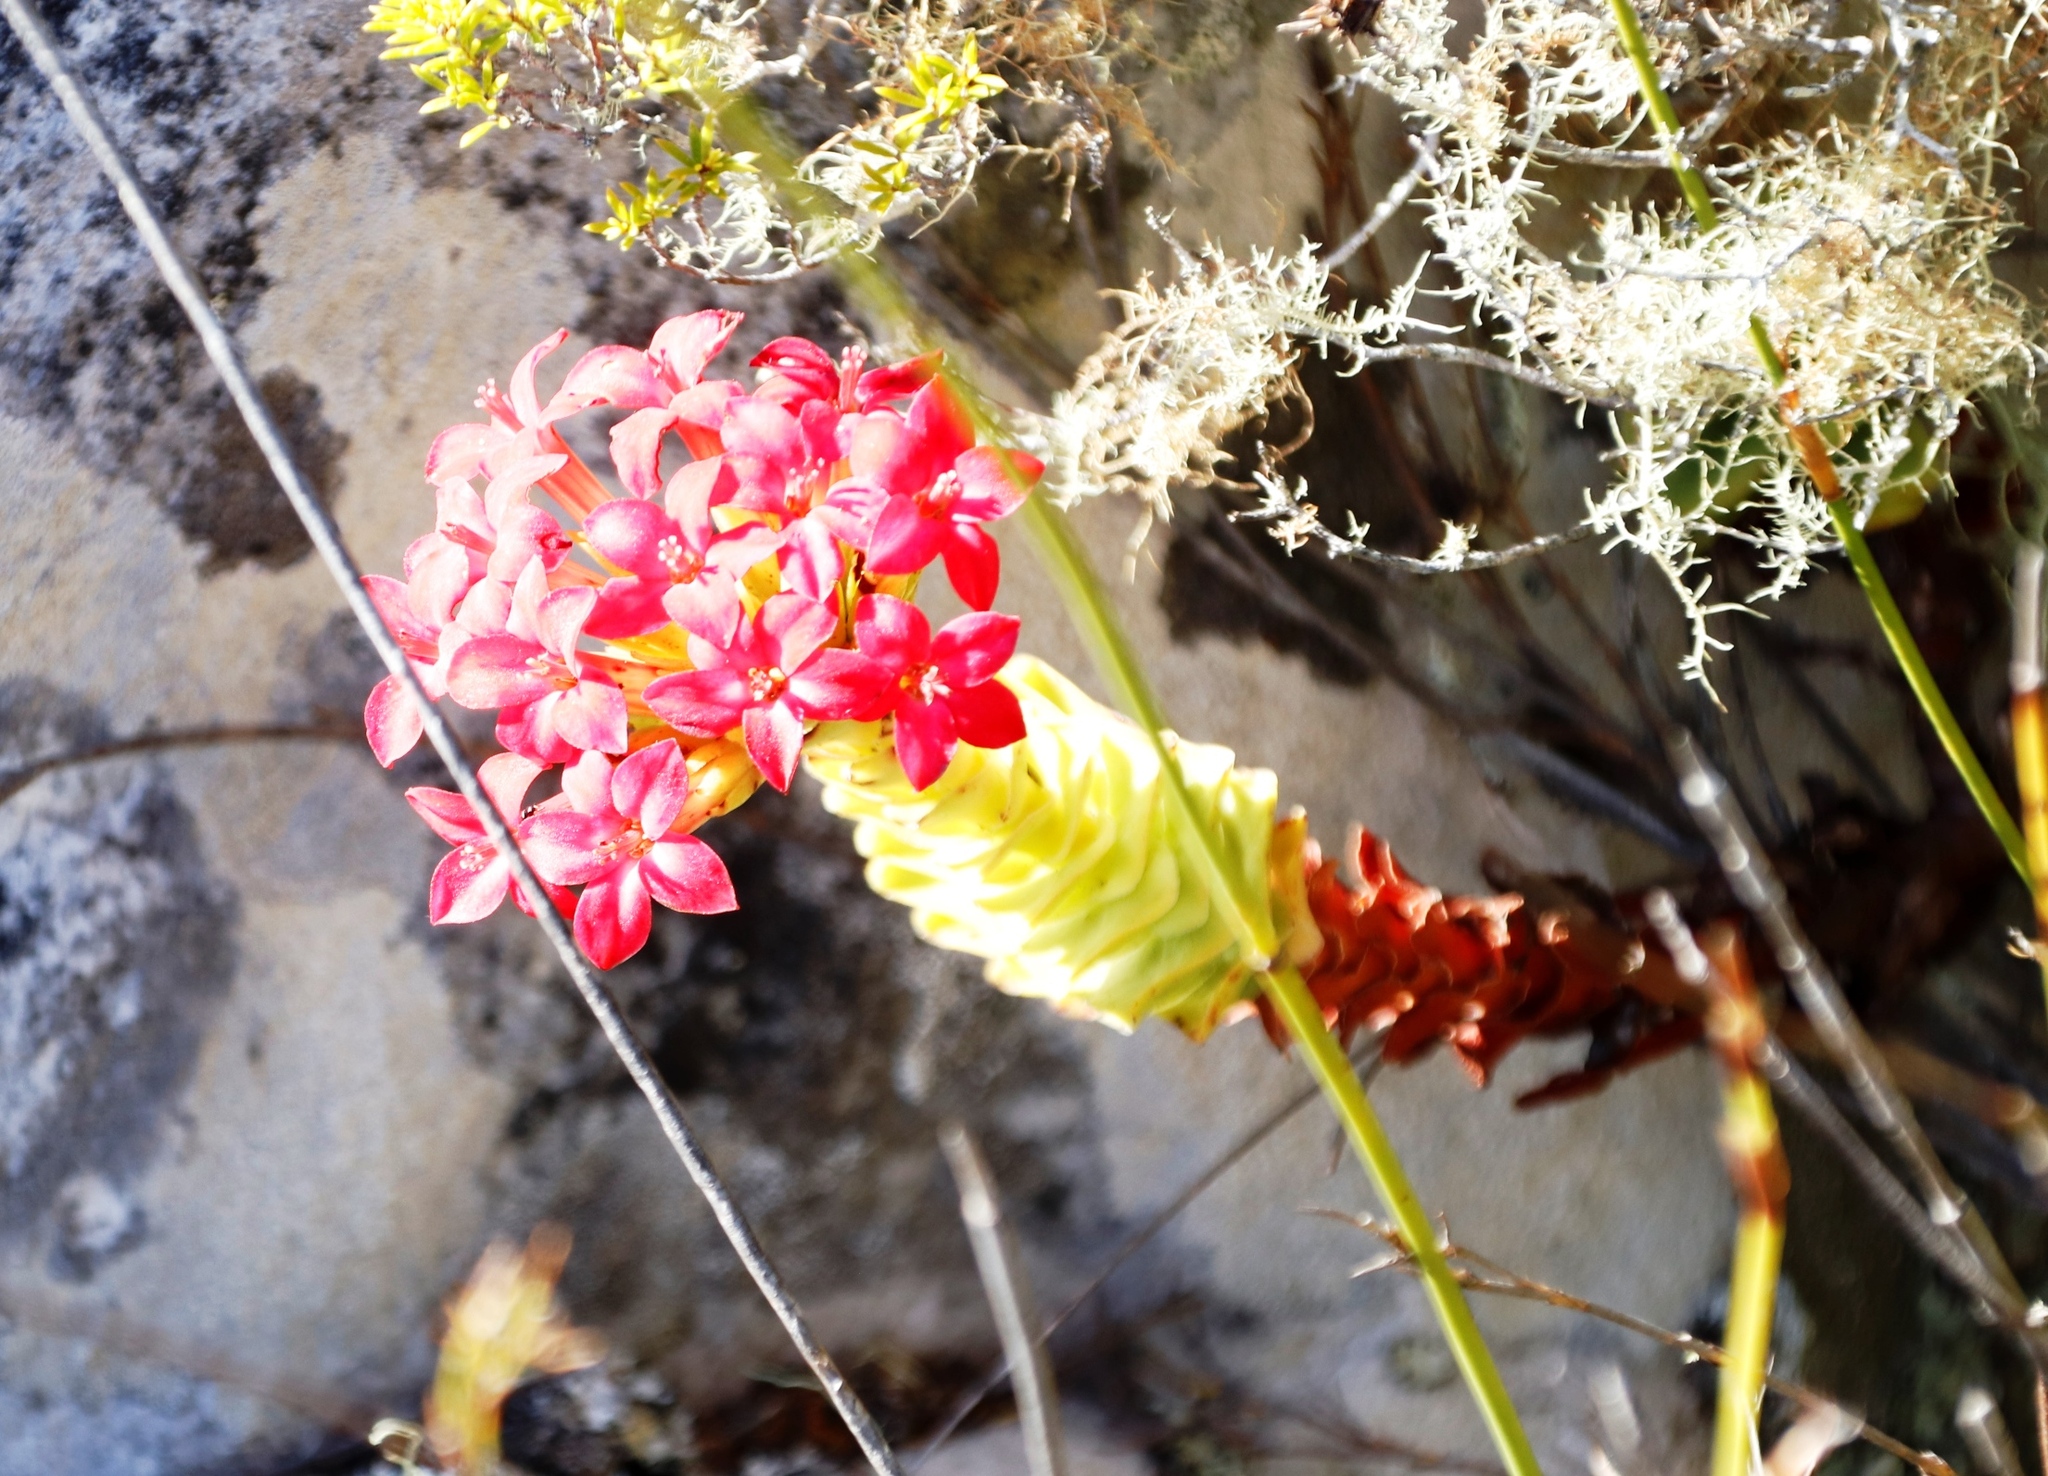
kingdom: Plantae
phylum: Tracheophyta
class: Magnoliopsida
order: Saxifragales
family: Crassulaceae
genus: Crassula
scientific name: Crassula coccinea
